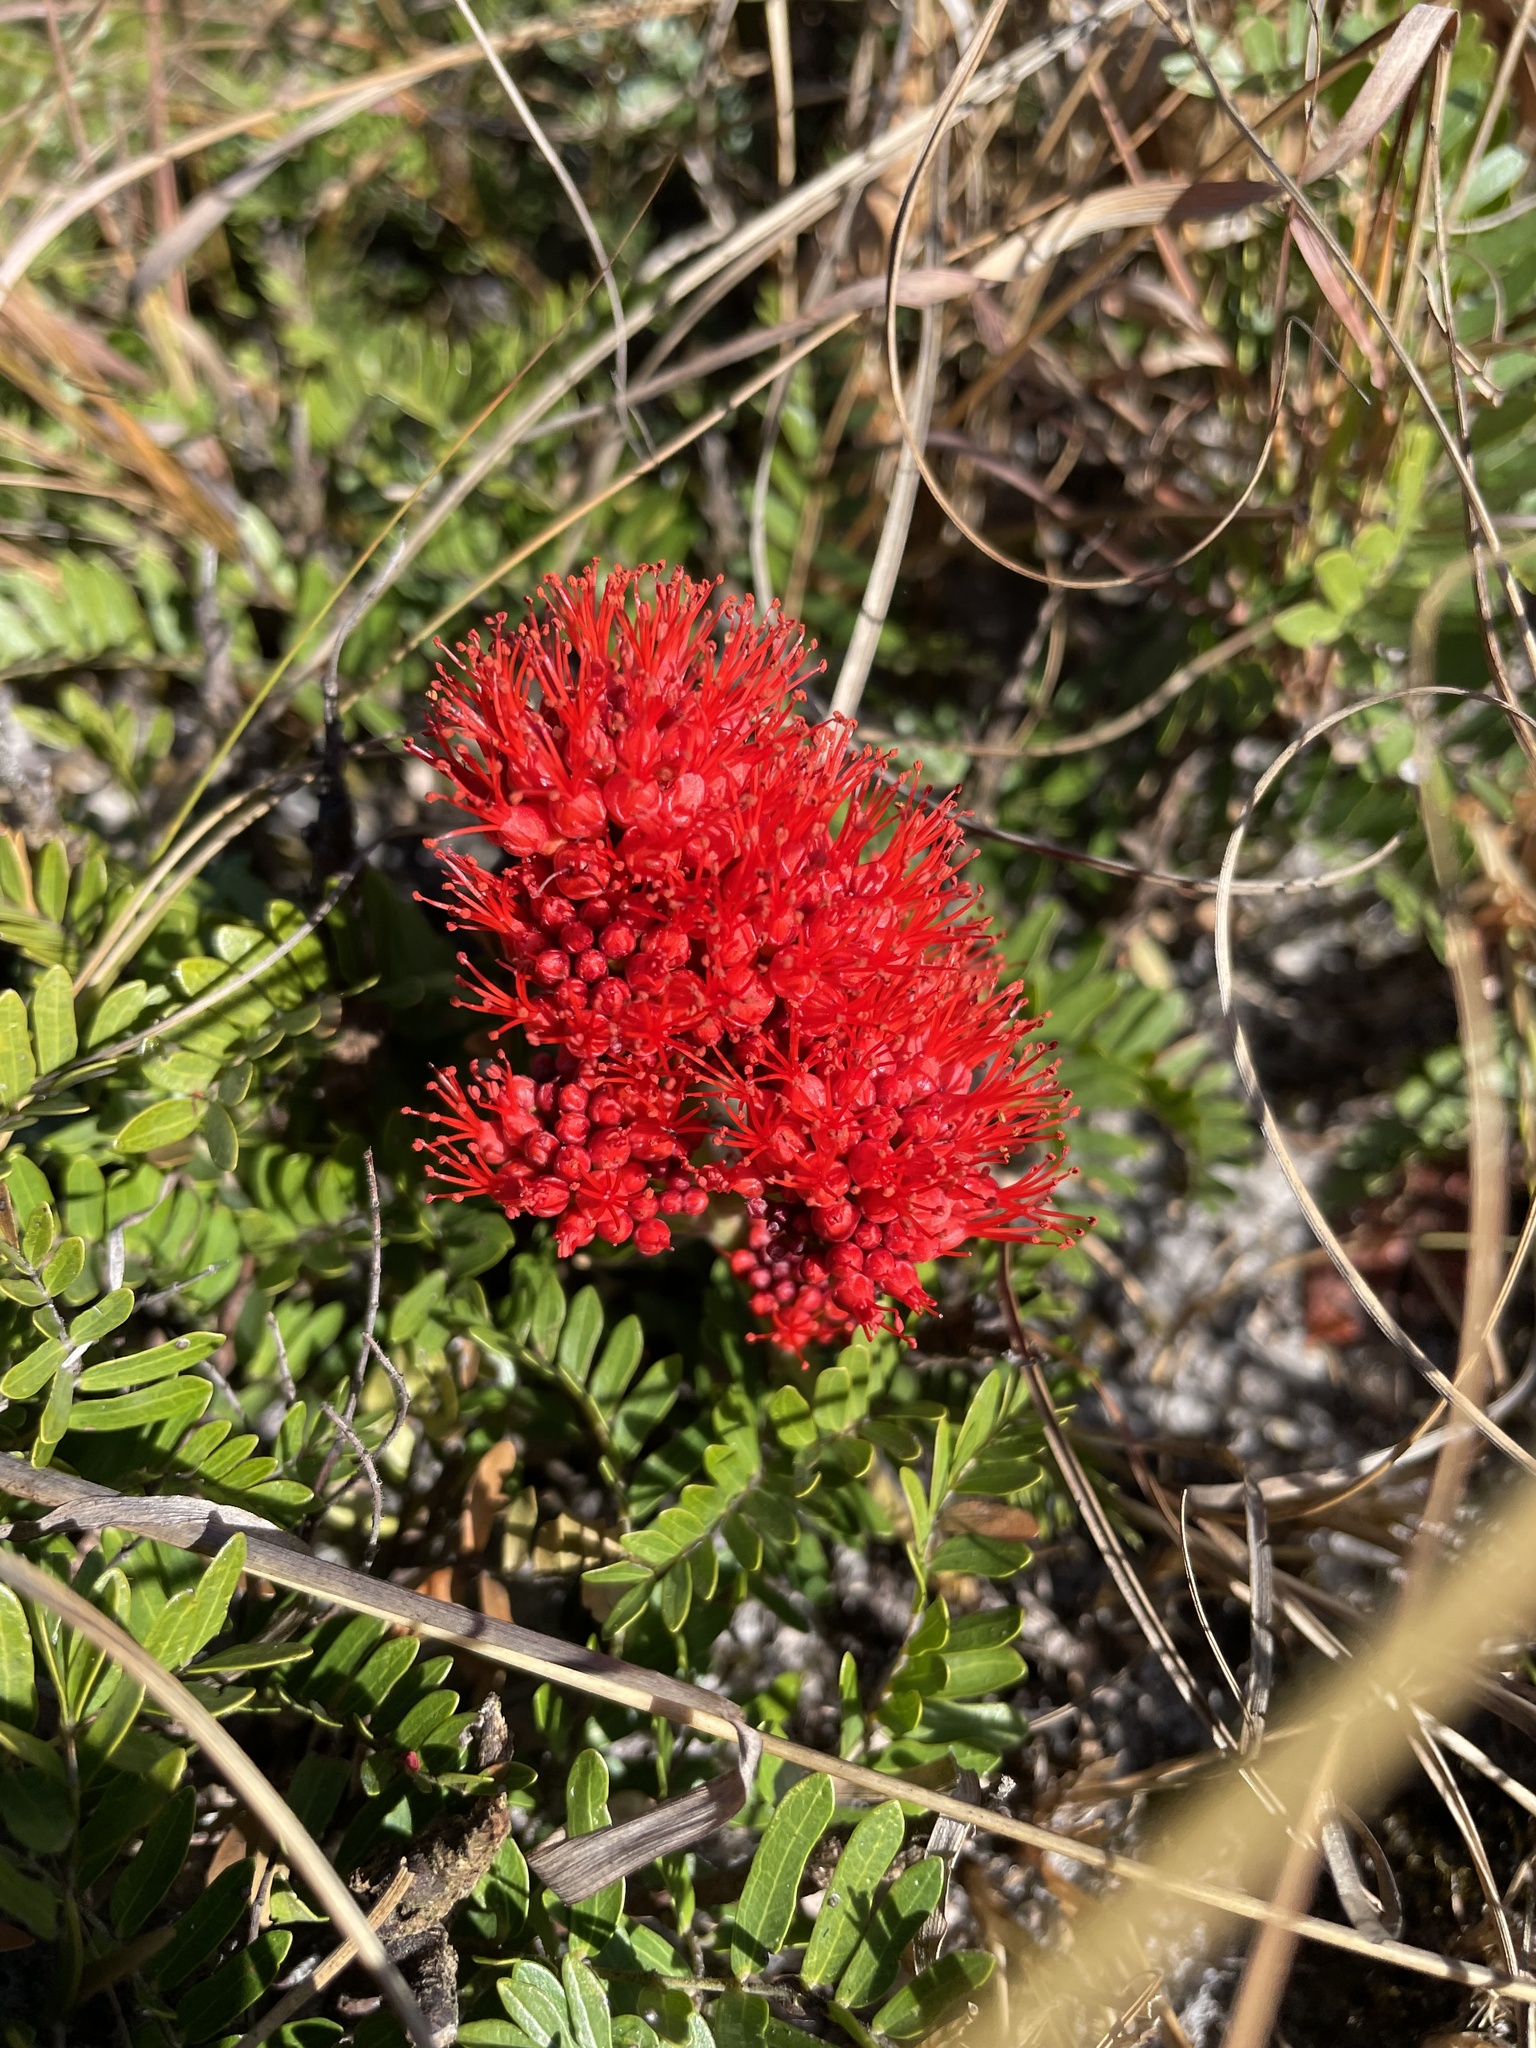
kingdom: Plantae
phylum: Tracheophyta
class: Magnoliopsida
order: Myrtales
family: Combretaceae
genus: Combretum
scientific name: Combretum platypetalum
